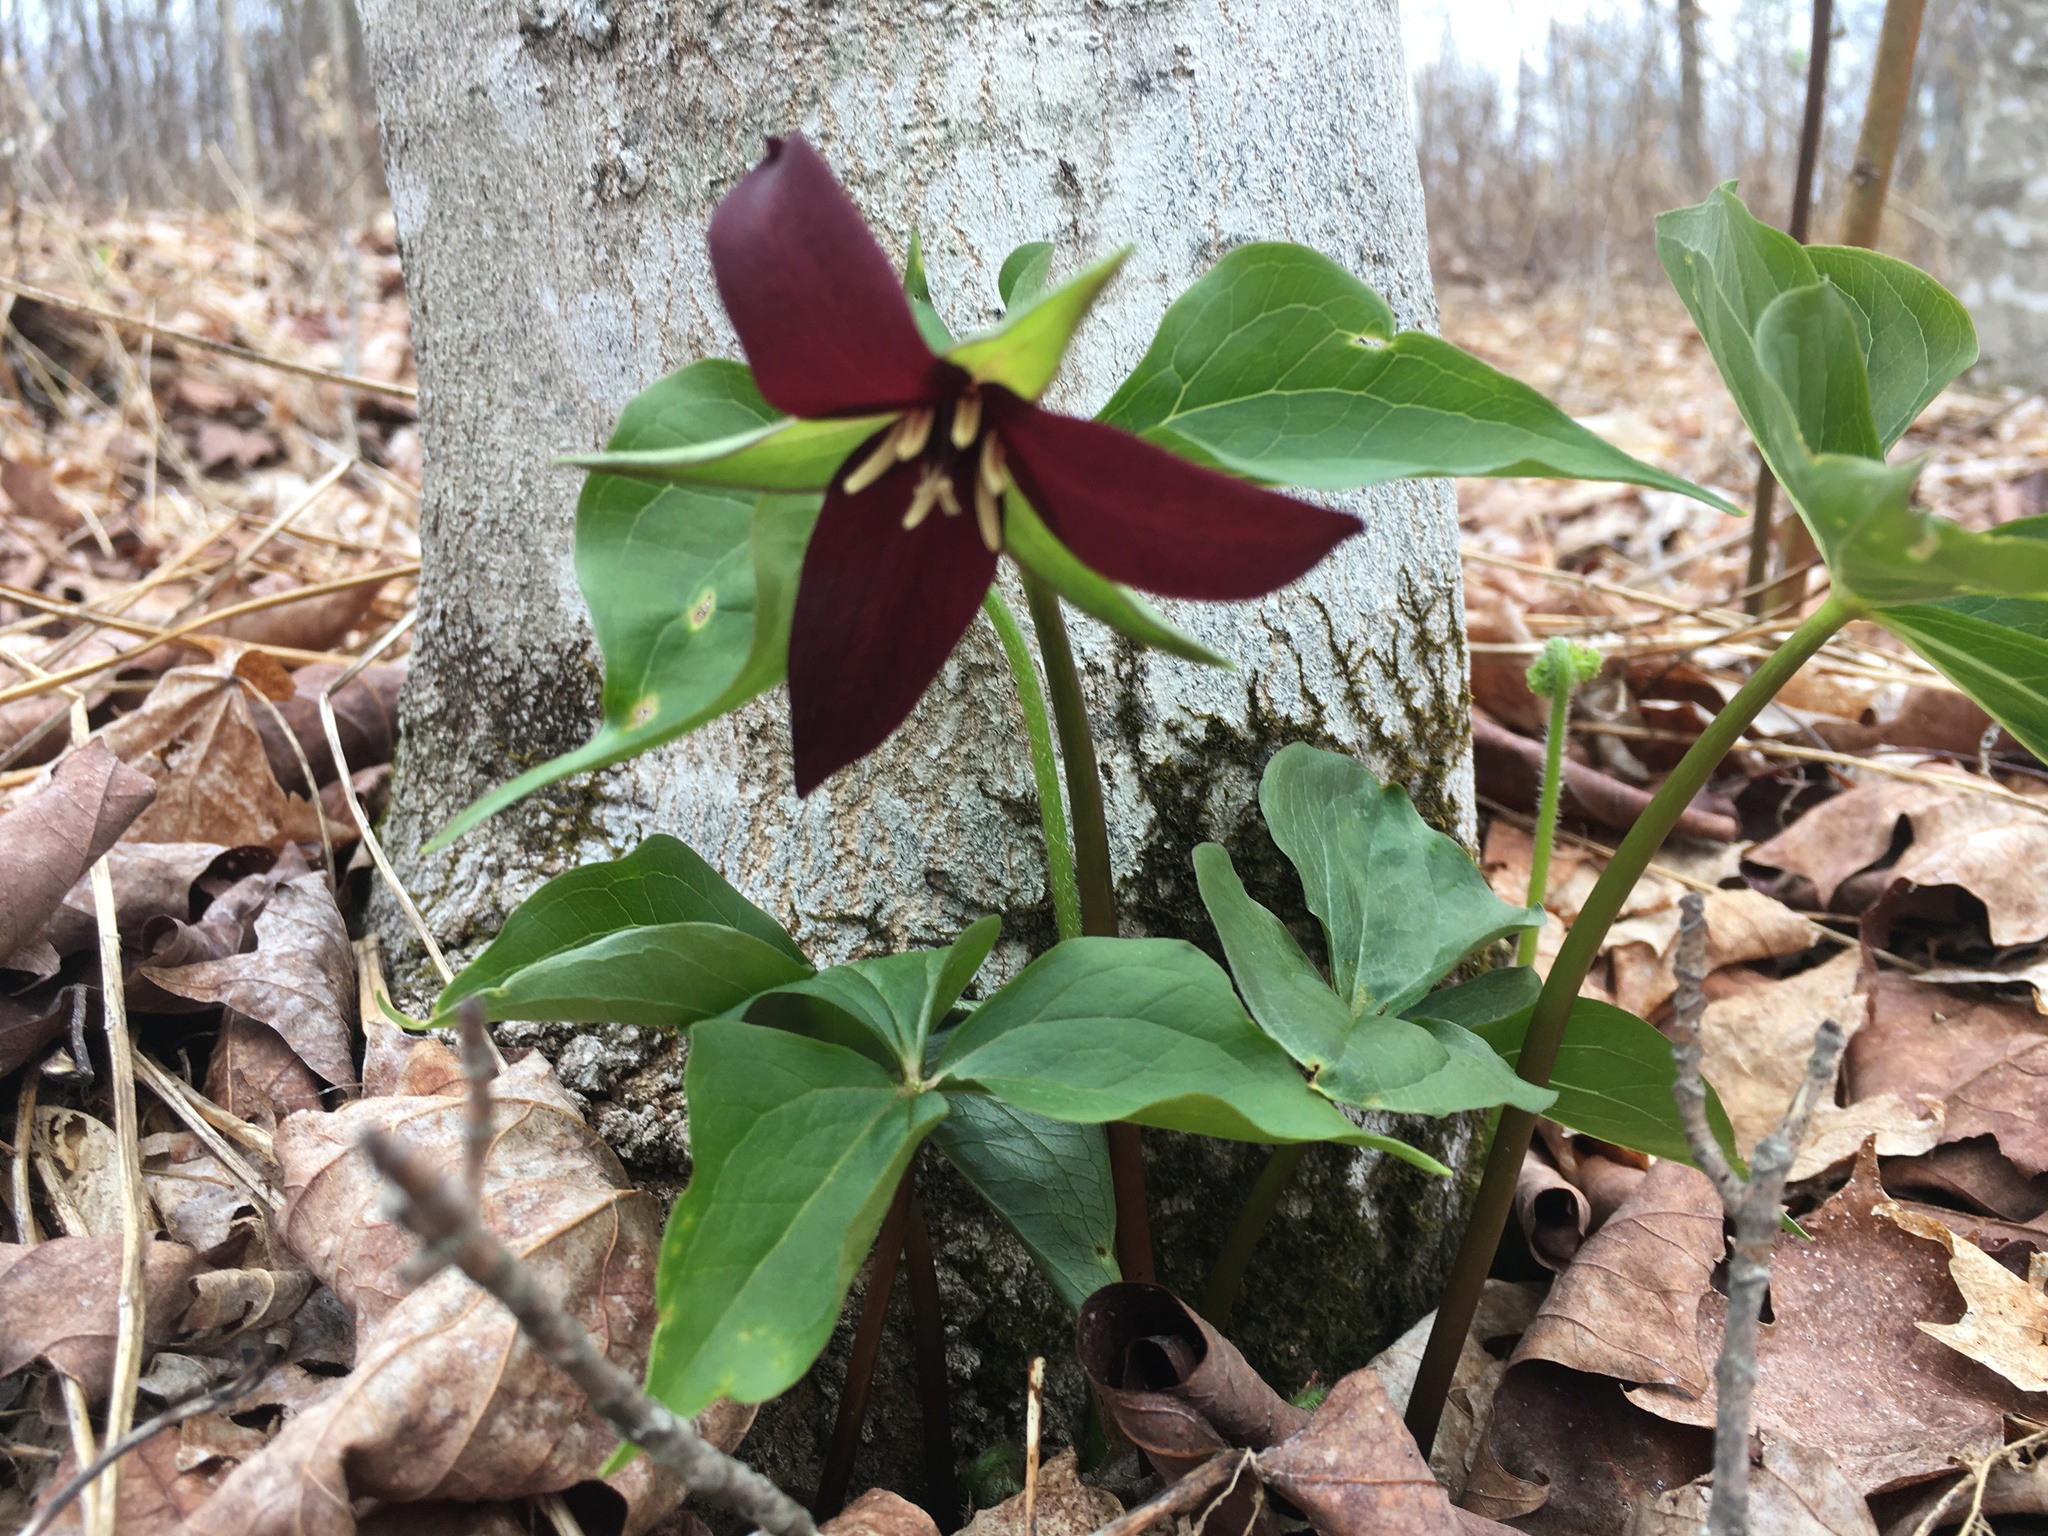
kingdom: Plantae
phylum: Tracheophyta
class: Liliopsida
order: Liliales
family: Melanthiaceae
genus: Trillium
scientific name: Trillium erectum
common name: Purple trillium
